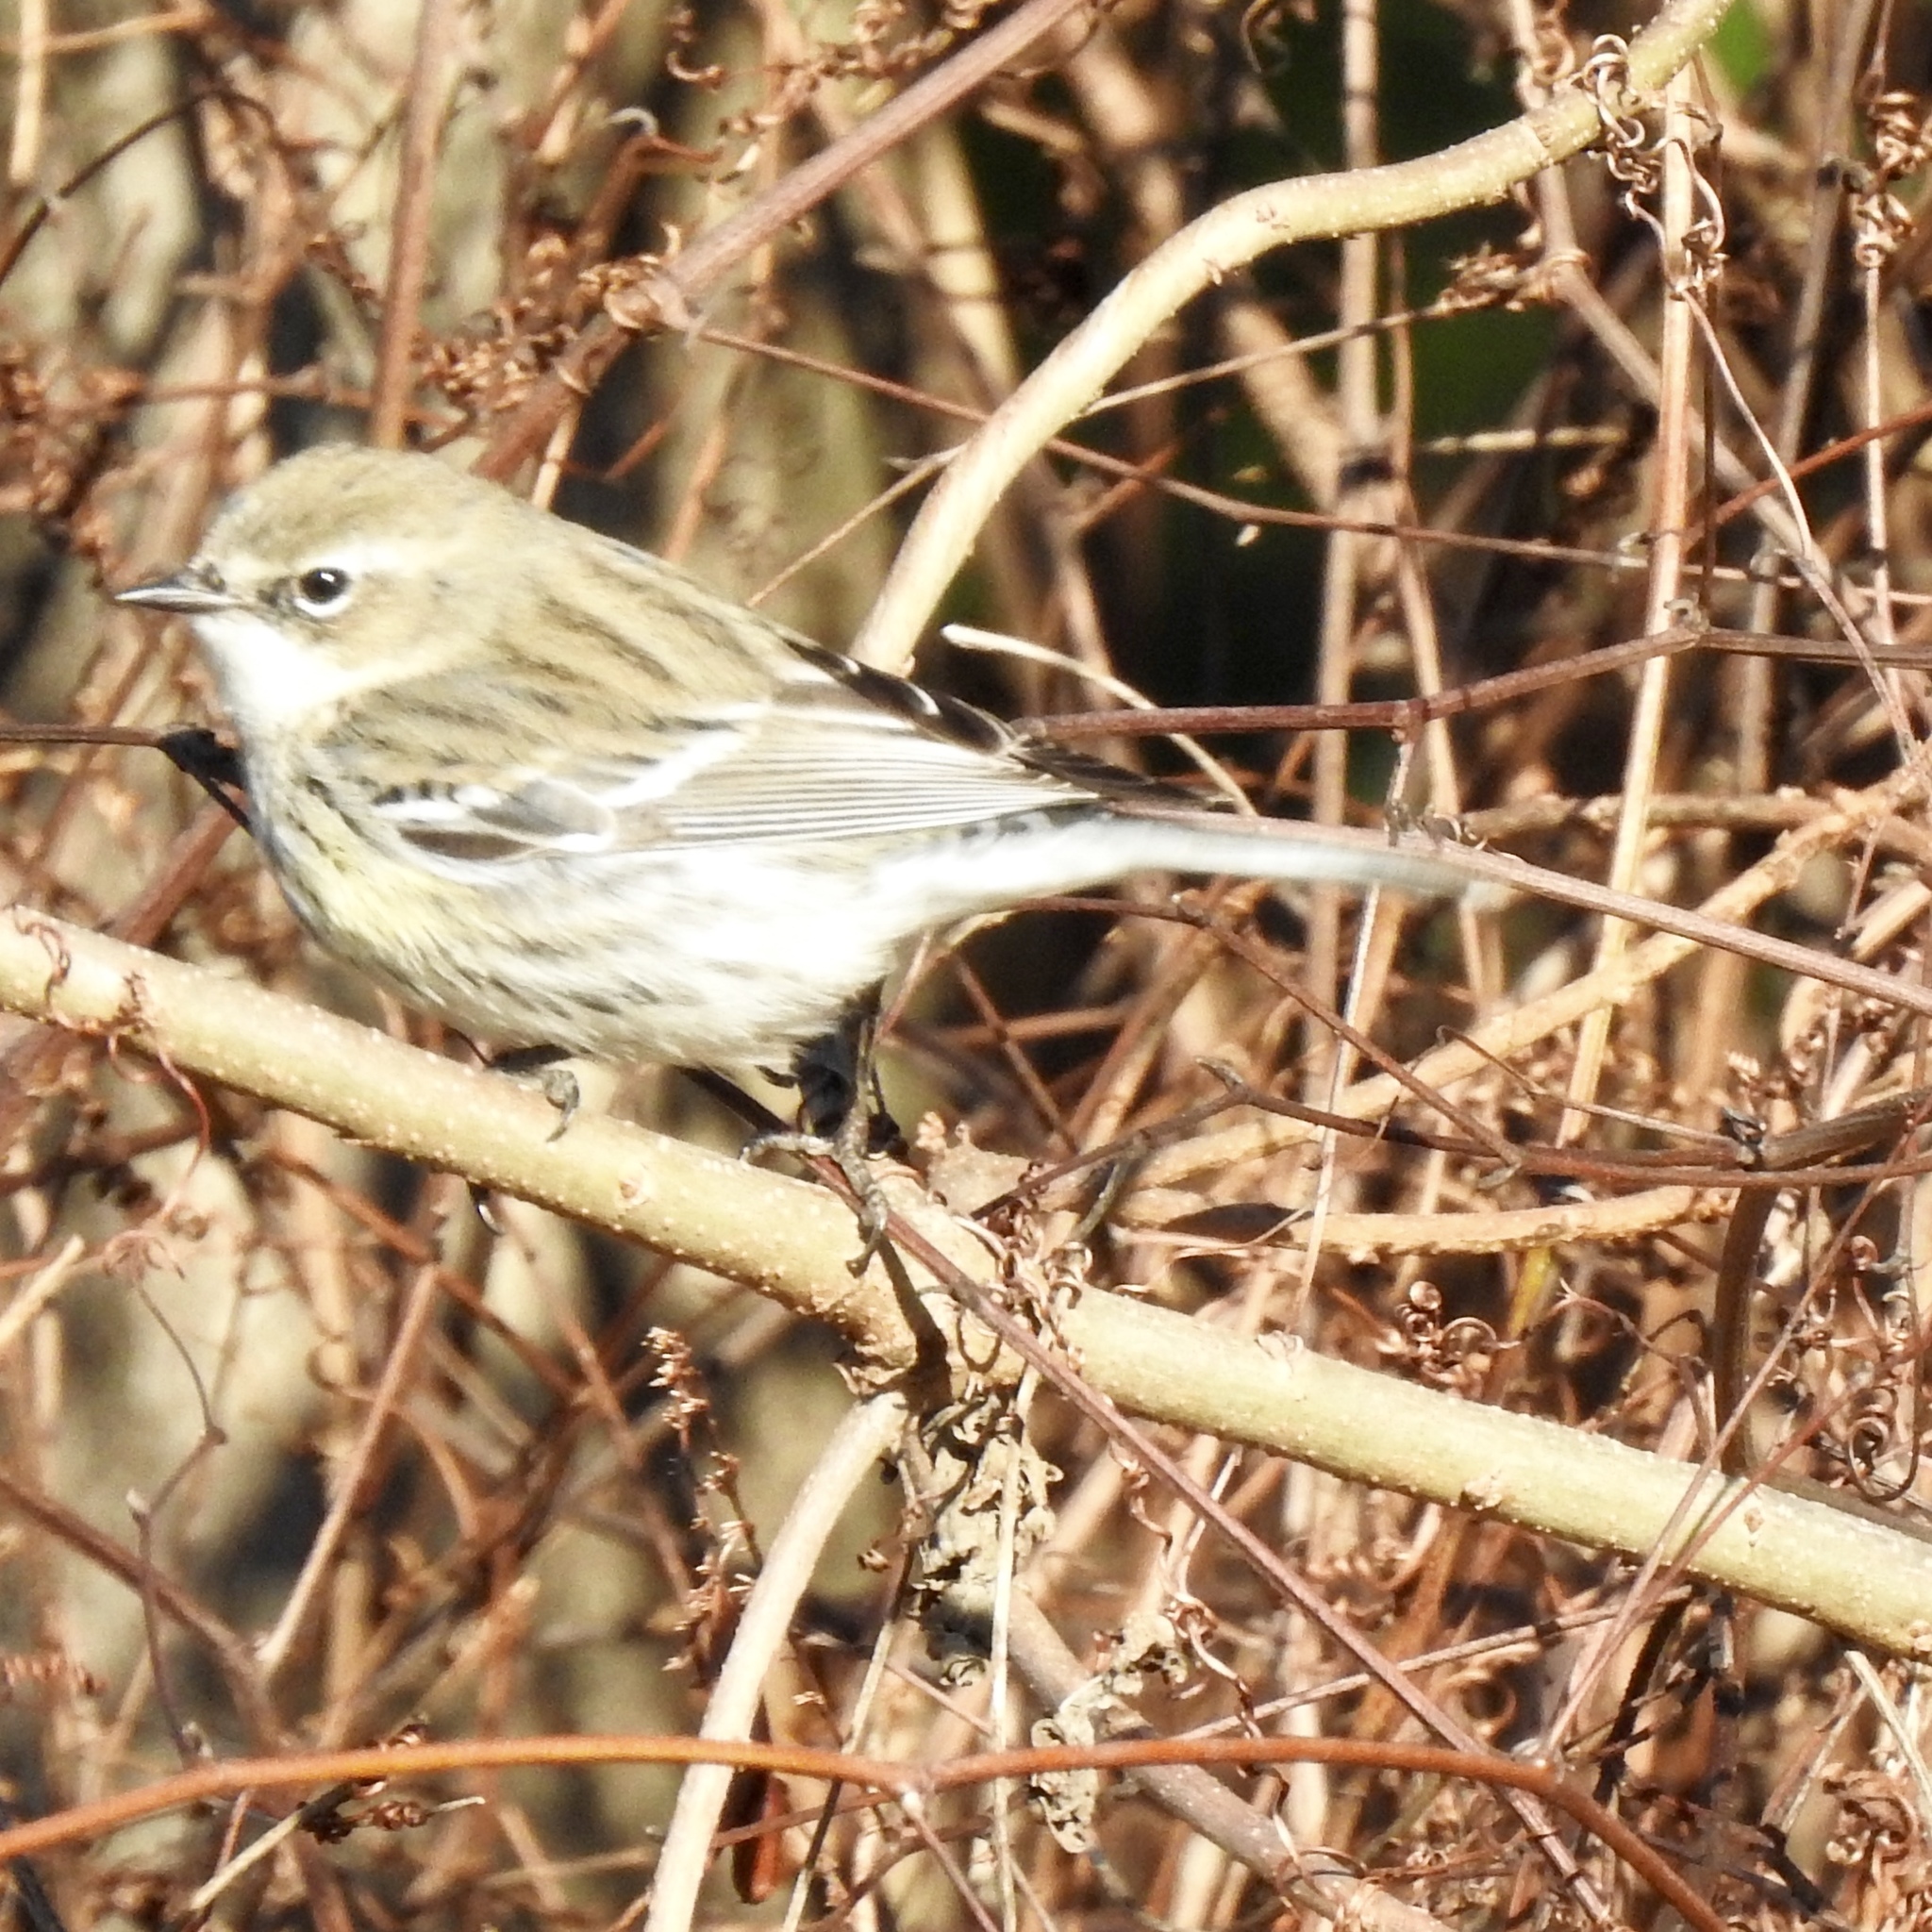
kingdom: Animalia
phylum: Chordata
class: Aves
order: Passeriformes
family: Parulidae
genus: Setophaga
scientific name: Setophaga coronata
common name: Myrtle warbler
